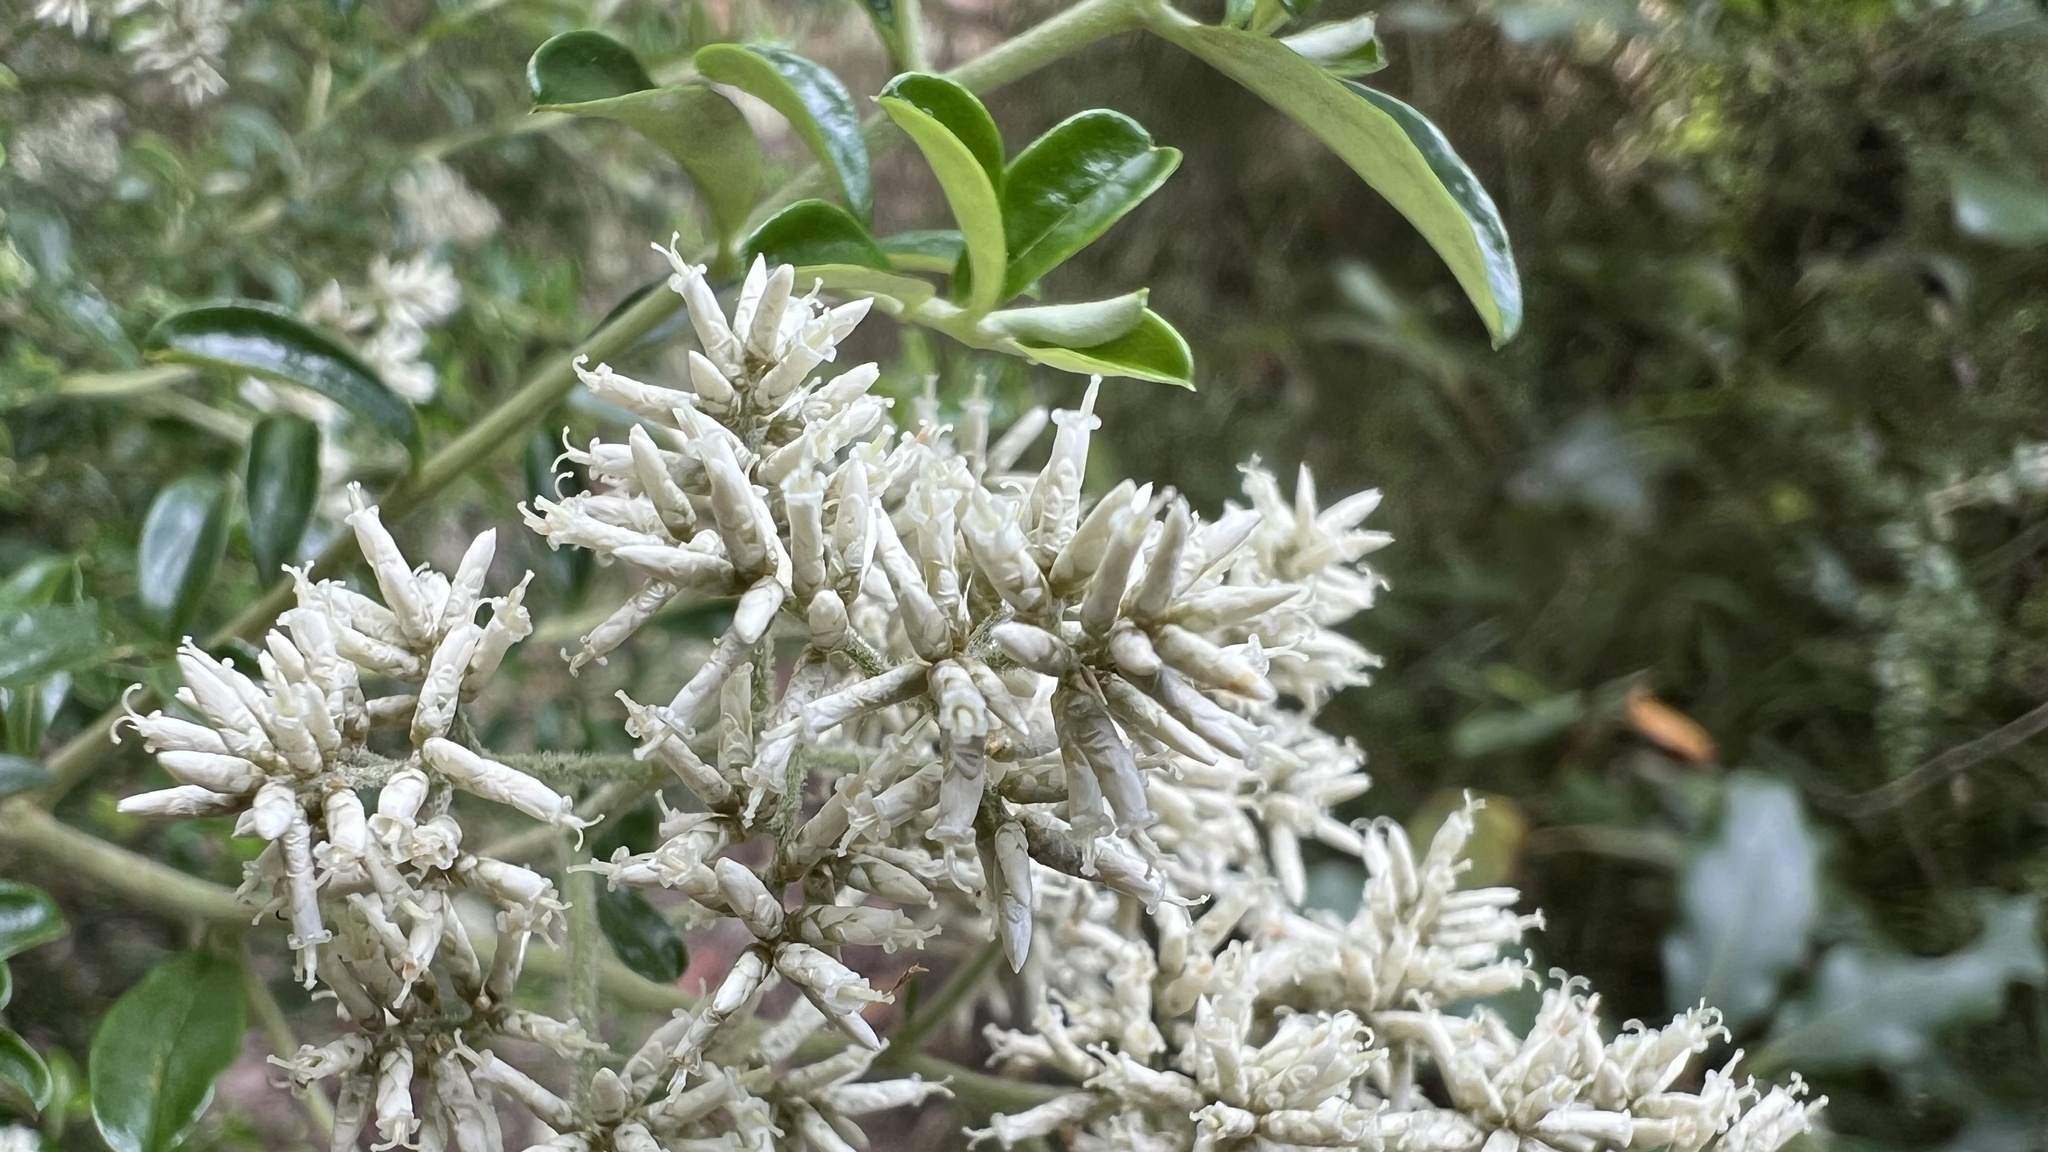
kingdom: Plantae
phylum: Tracheophyta
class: Magnoliopsida
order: Asterales
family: Asteraceae
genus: Cassinia
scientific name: Cassinia subtropica
